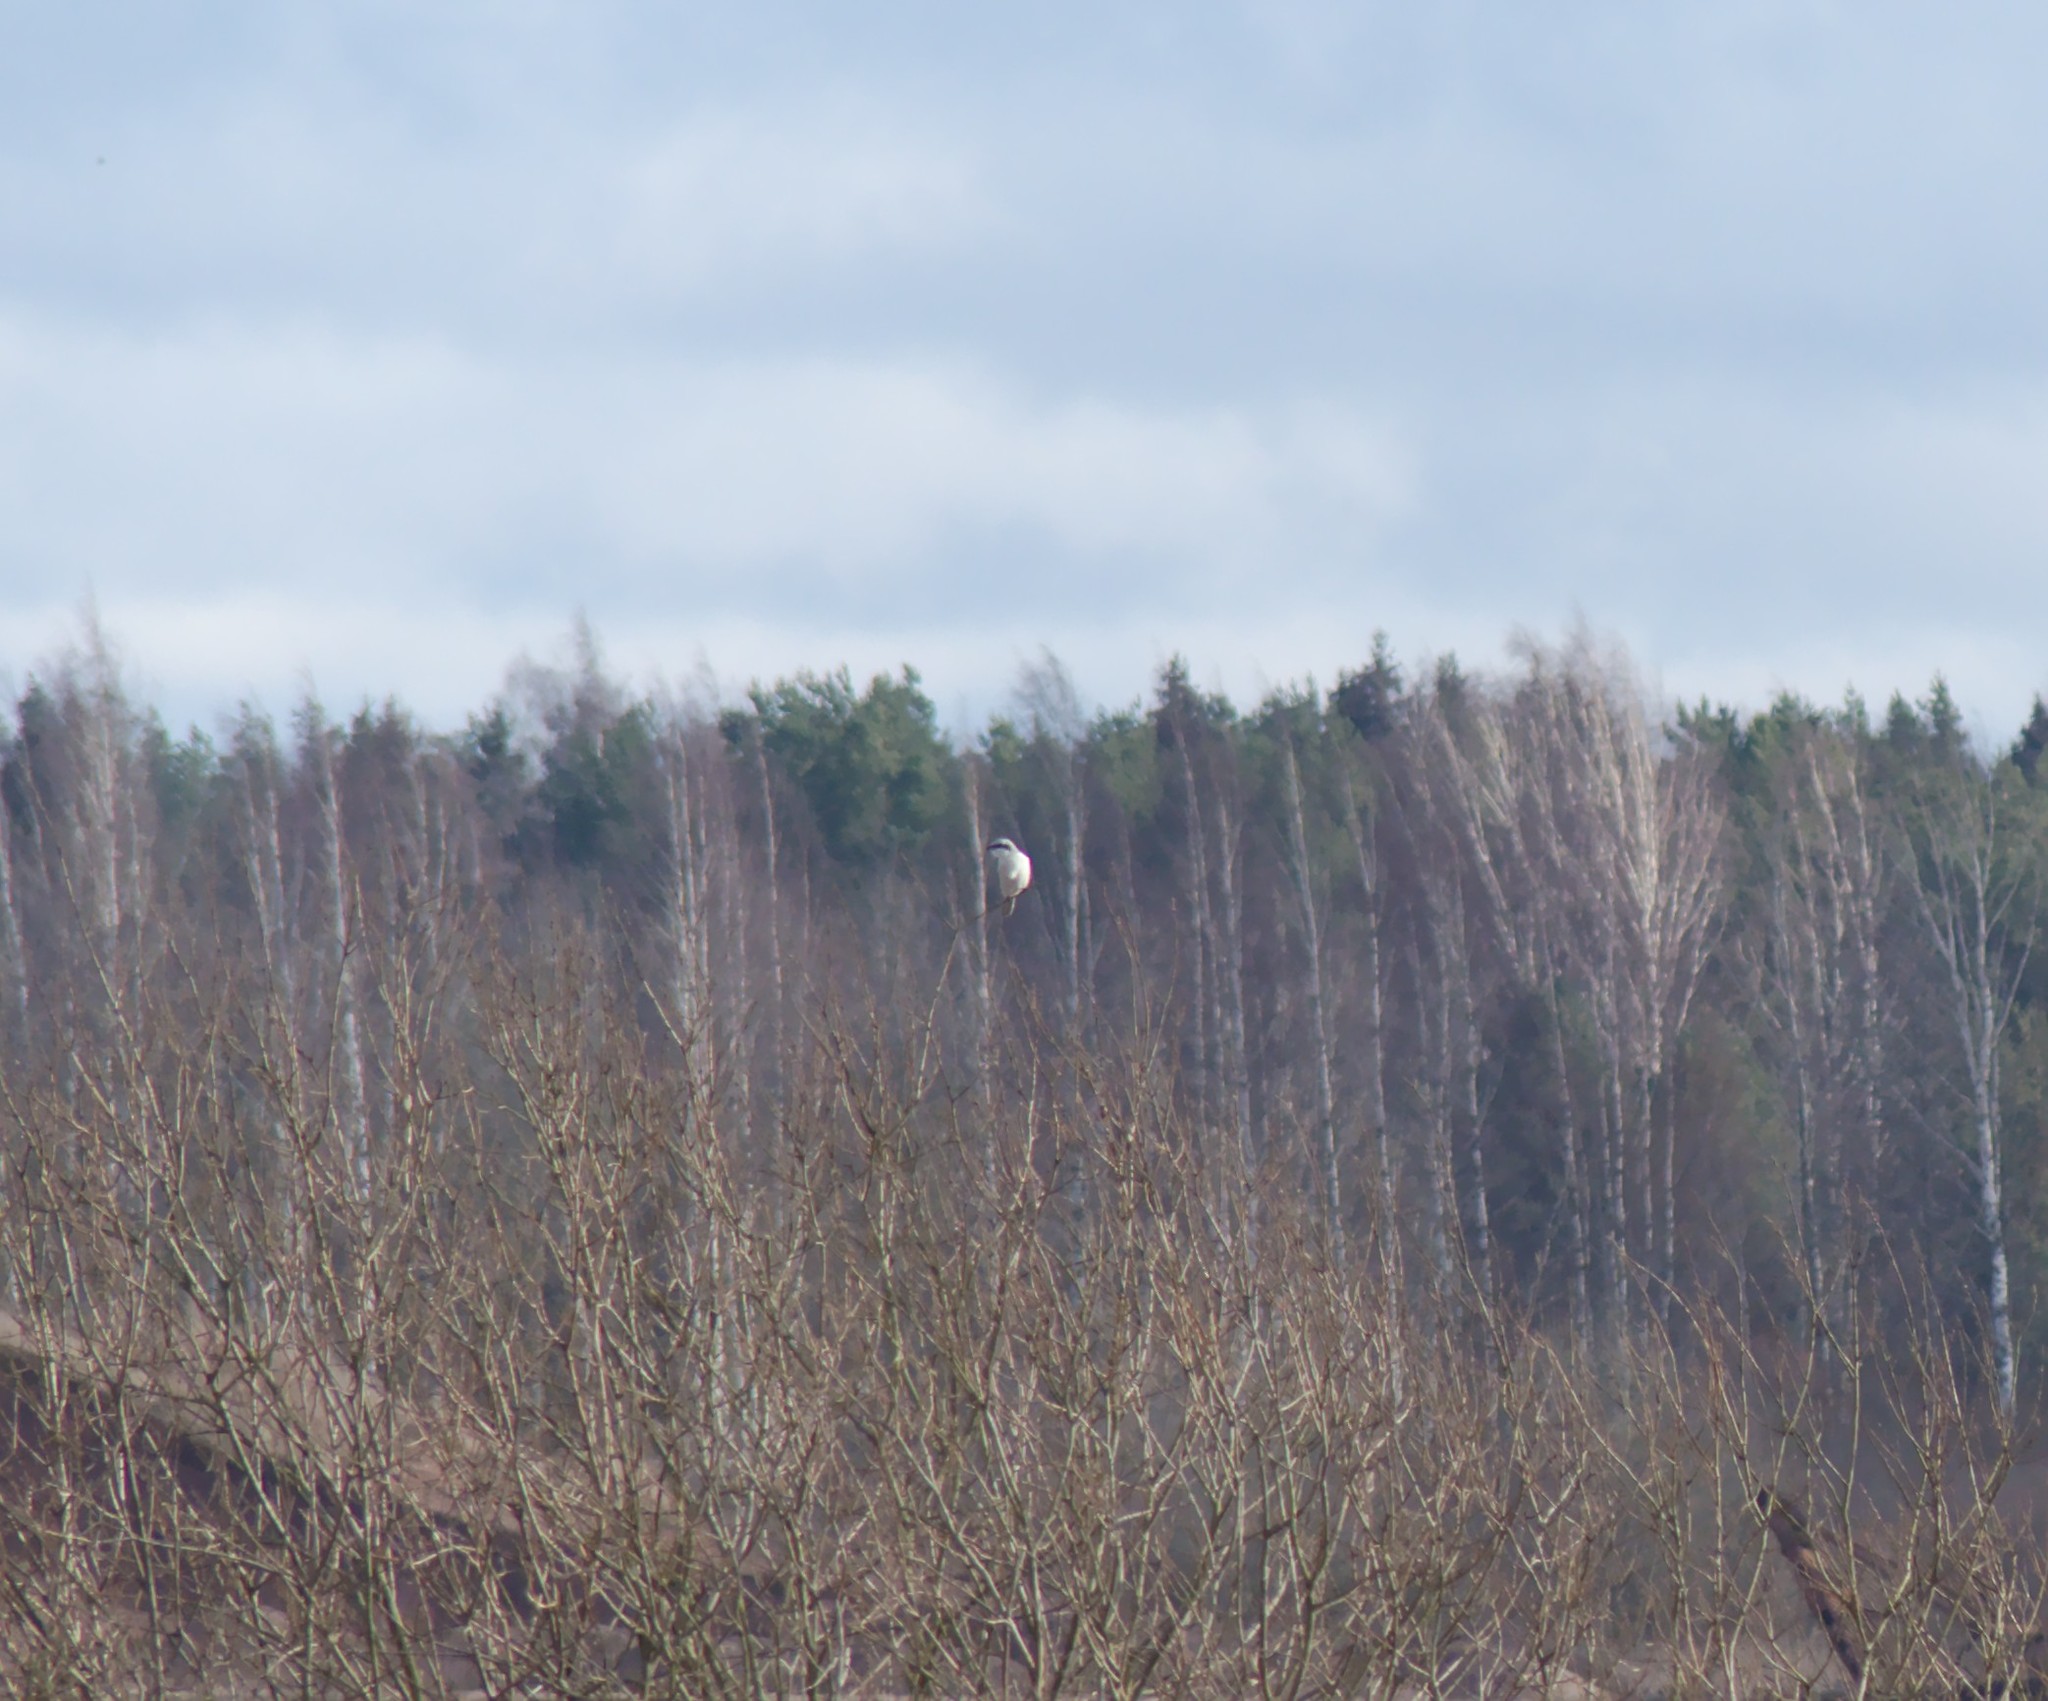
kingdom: Animalia
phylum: Chordata
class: Aves
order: Passeriformes
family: Laniidae
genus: Lanius
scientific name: Lanius excubitor
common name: Great grey shrike
